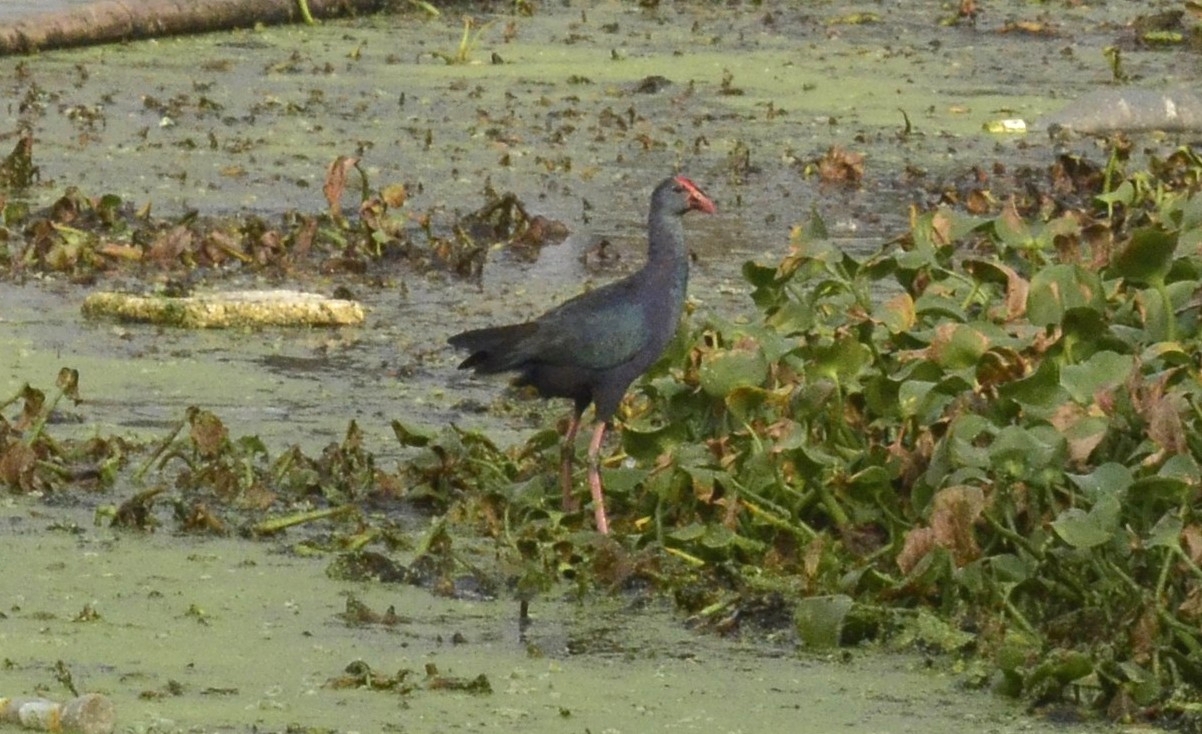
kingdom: Animalia
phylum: Chordata
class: Aves
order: Gruiformes
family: Rallidae
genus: Porphyrio
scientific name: Porphyrio porphyrio
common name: Purple swamphen
